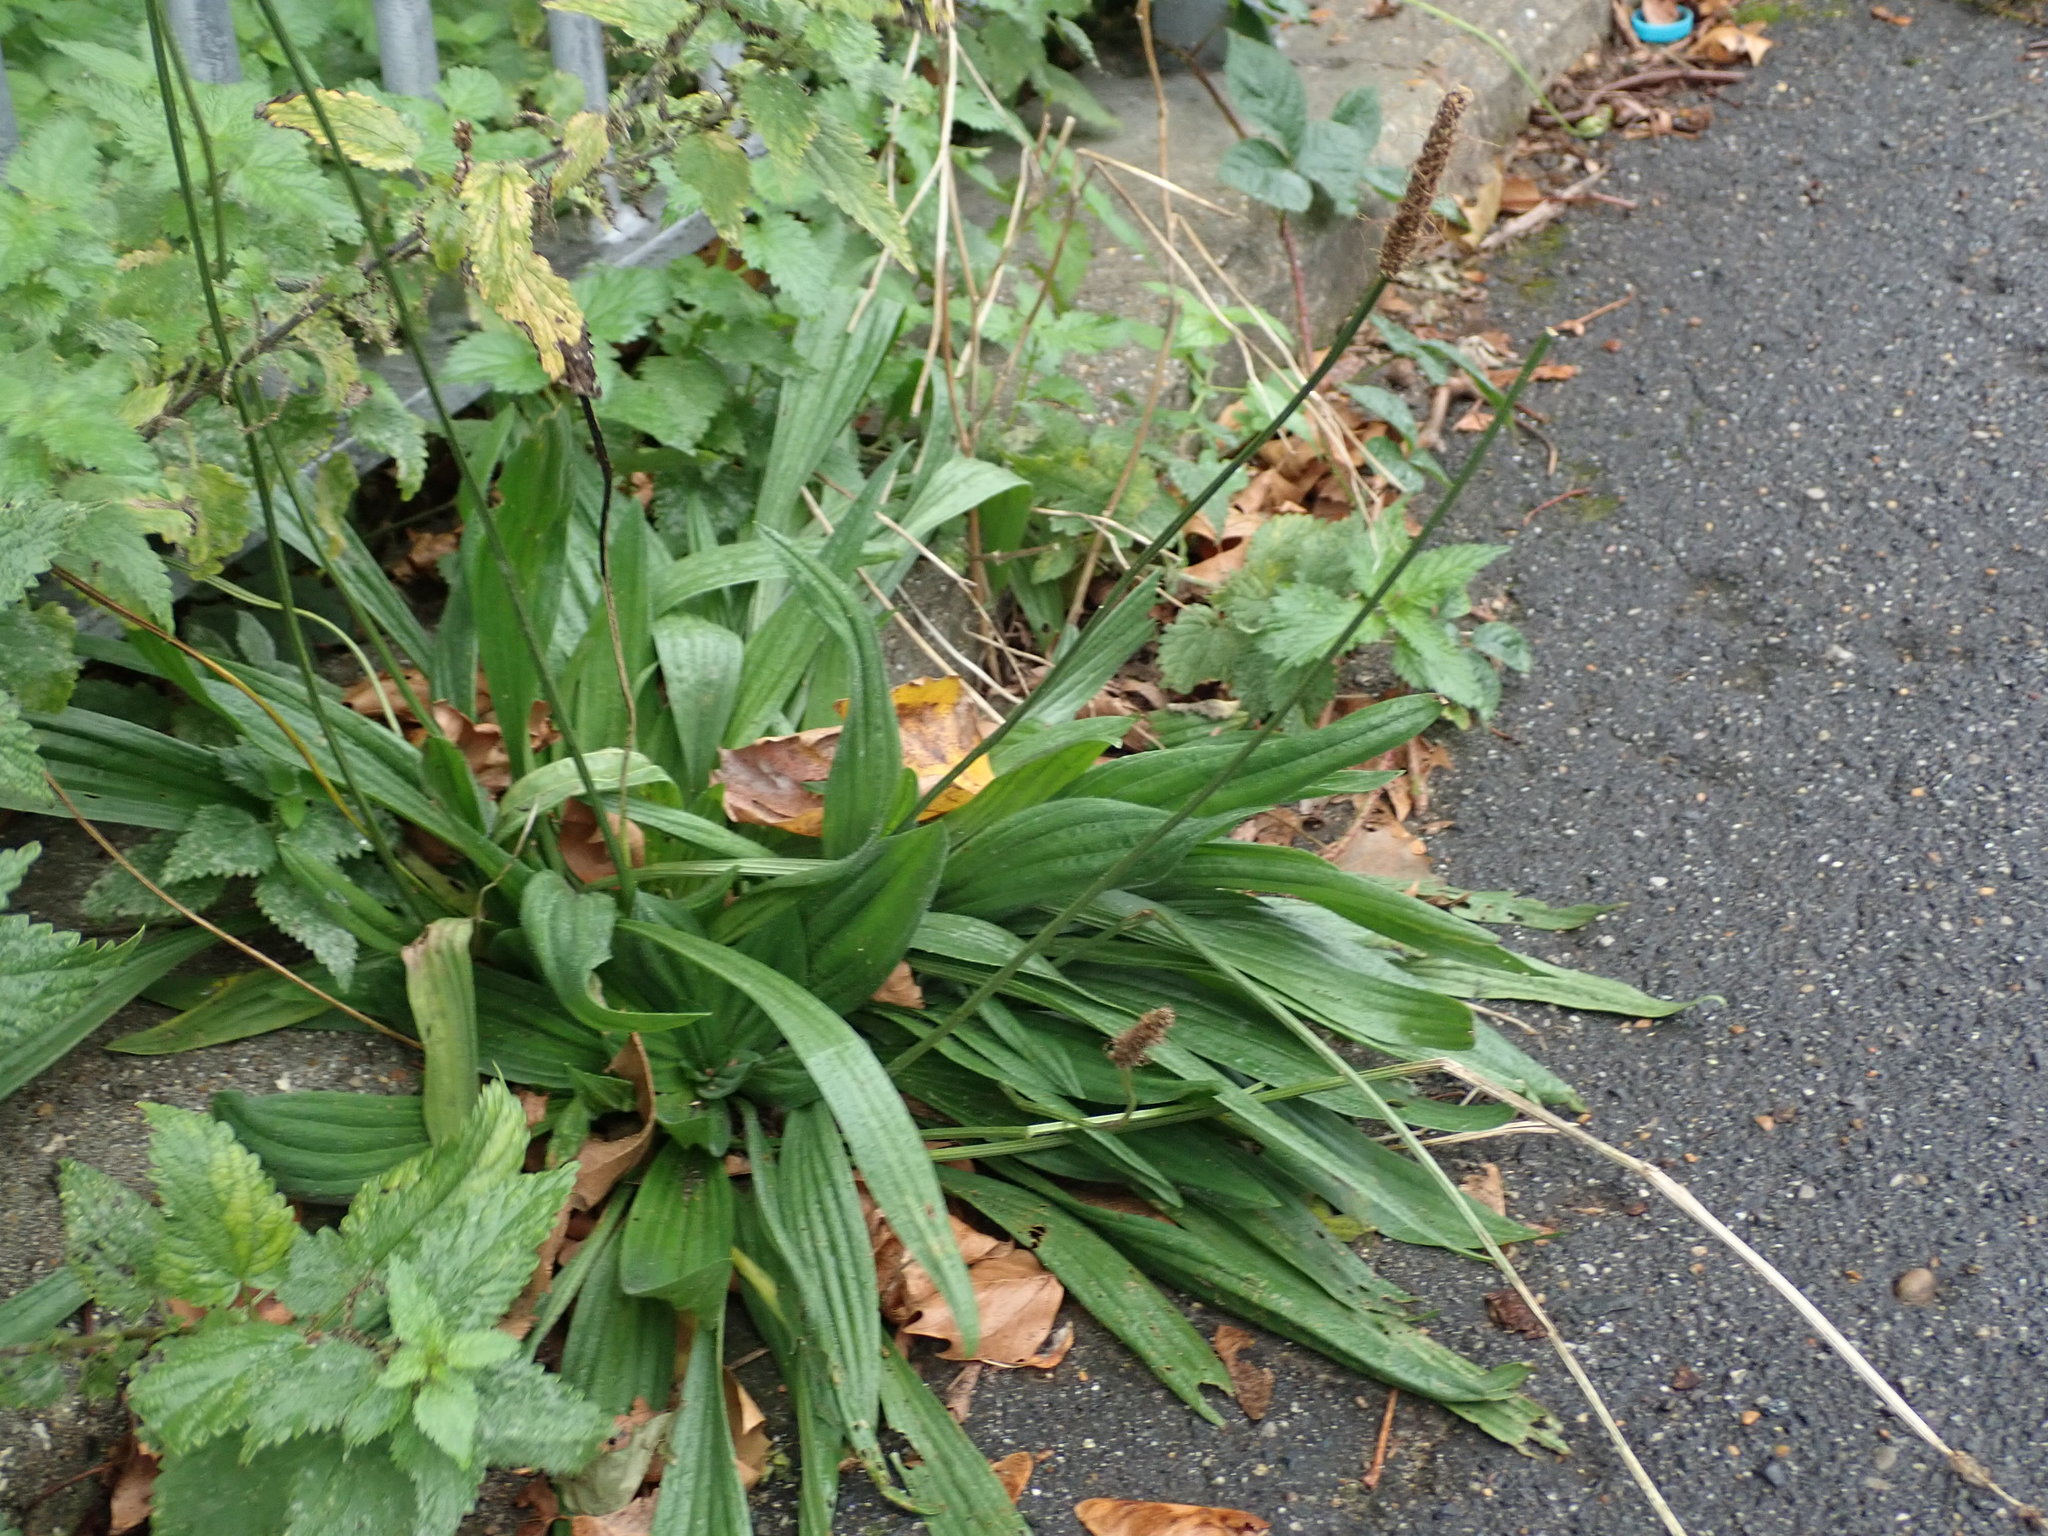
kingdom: Plantae
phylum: Tracheophyta
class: Magnoliopsida
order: Lamiales
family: Plantaginaceae
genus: Plantago
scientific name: Plantago lanceolata
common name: Ribwort plantain
